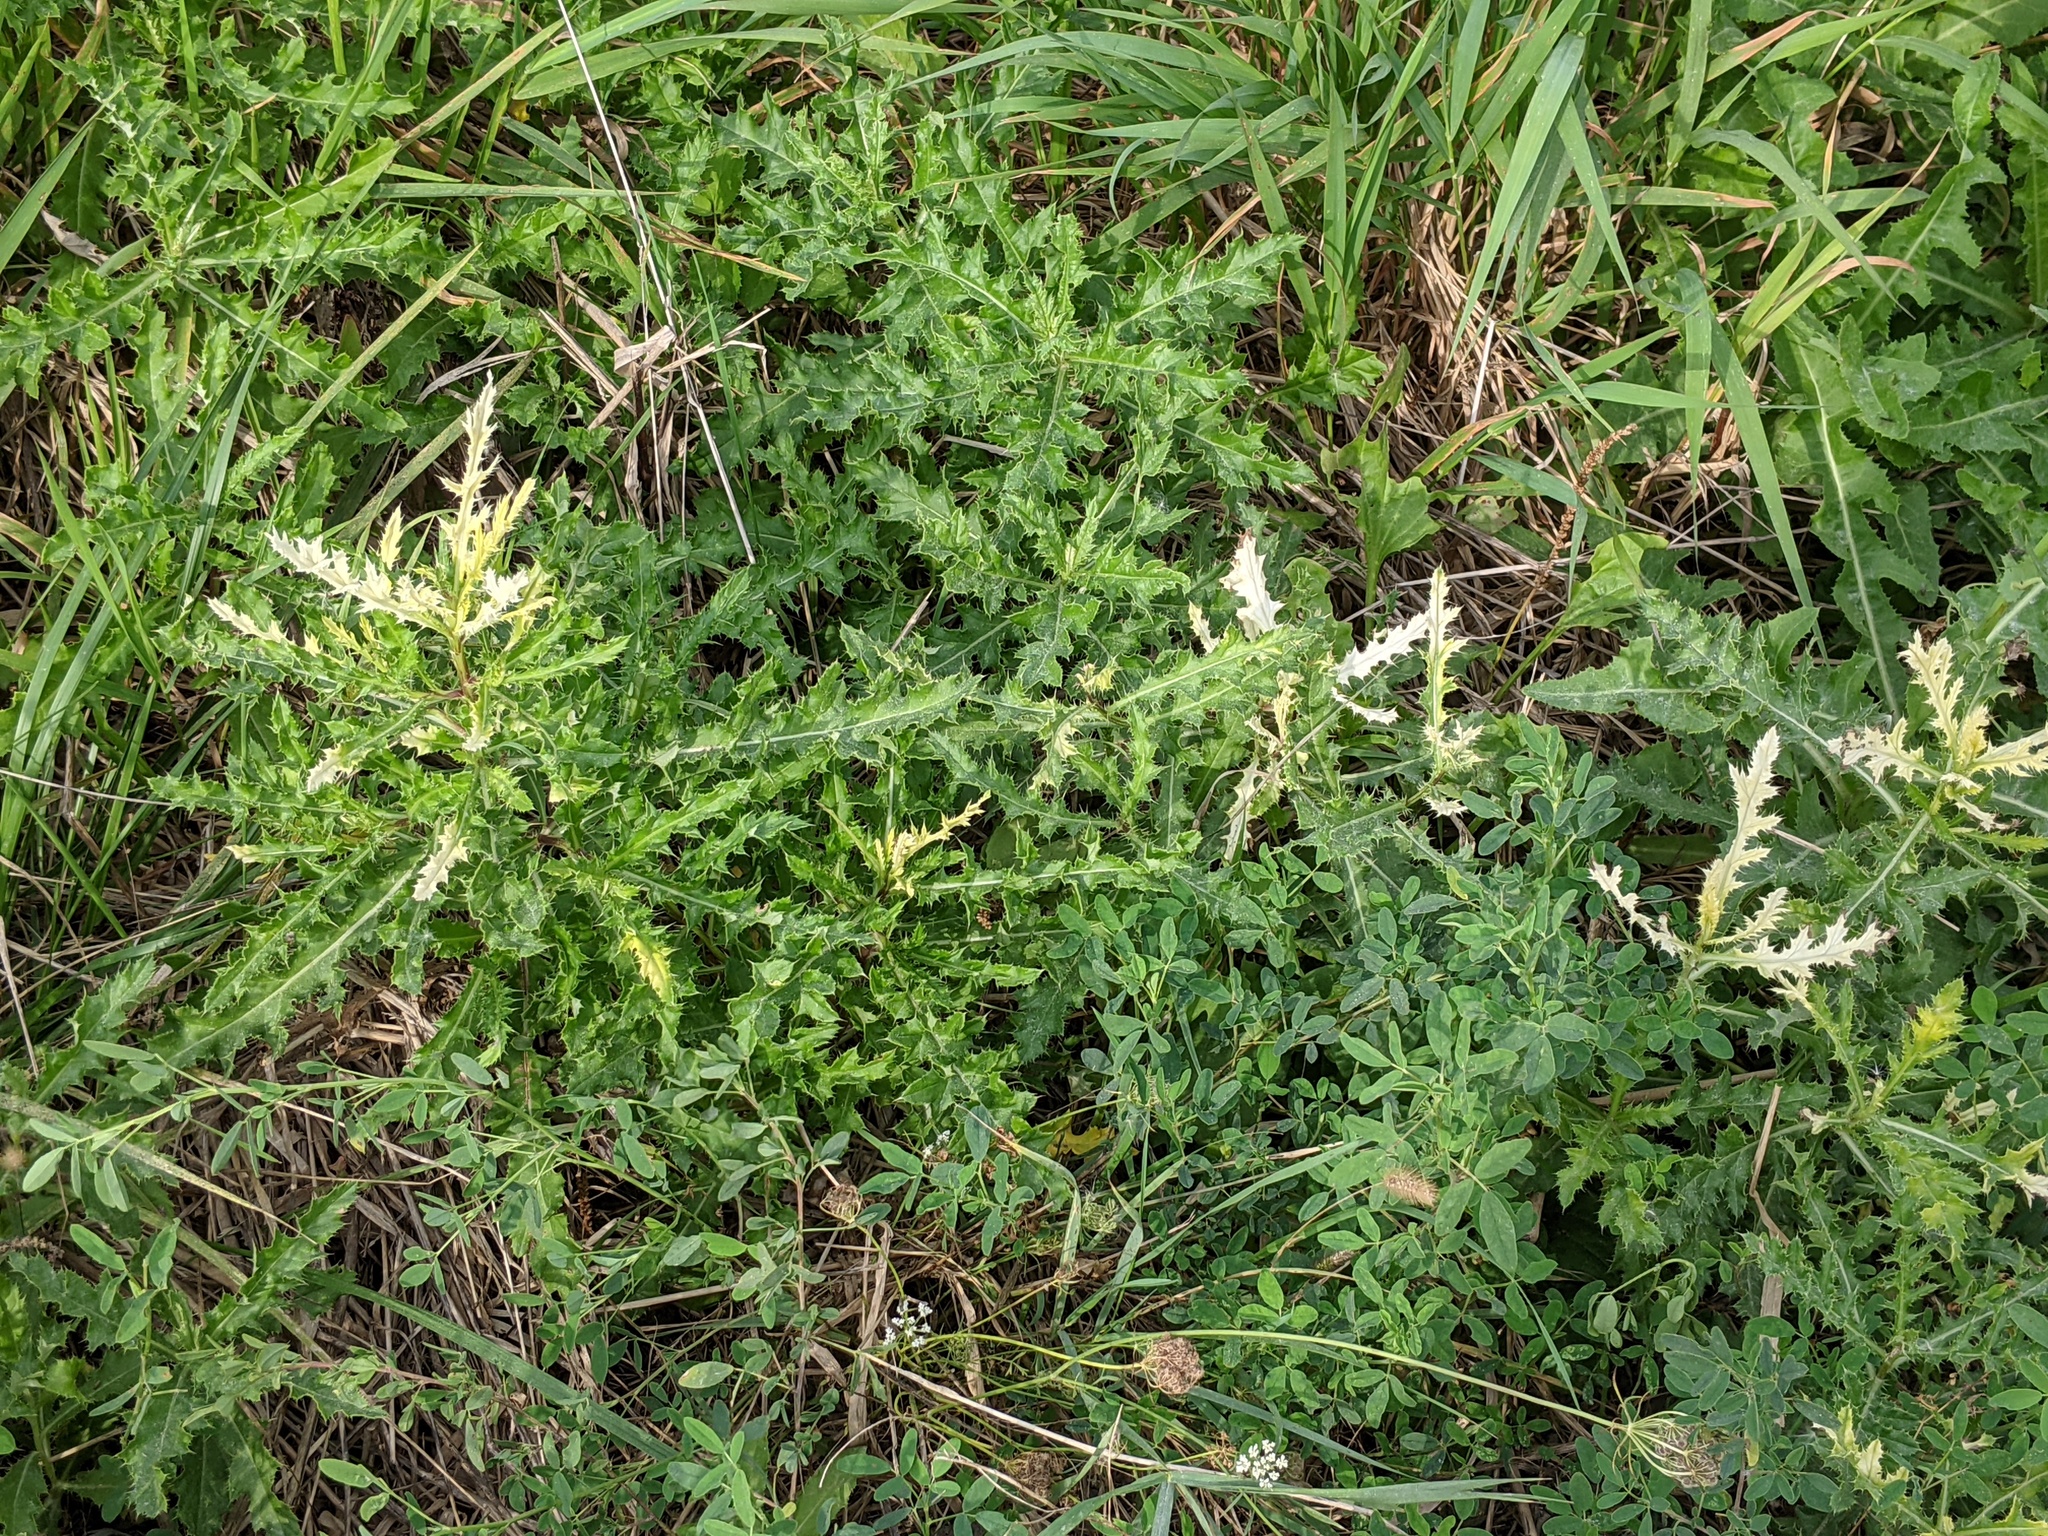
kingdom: Bacteria
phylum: Proteobacteria
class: Gammaproteobacteria
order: Pseudomonadales
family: Pseudomonadaceae
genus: Pseudomonas
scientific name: Pseudomonas syringae
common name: Bacterial speck
